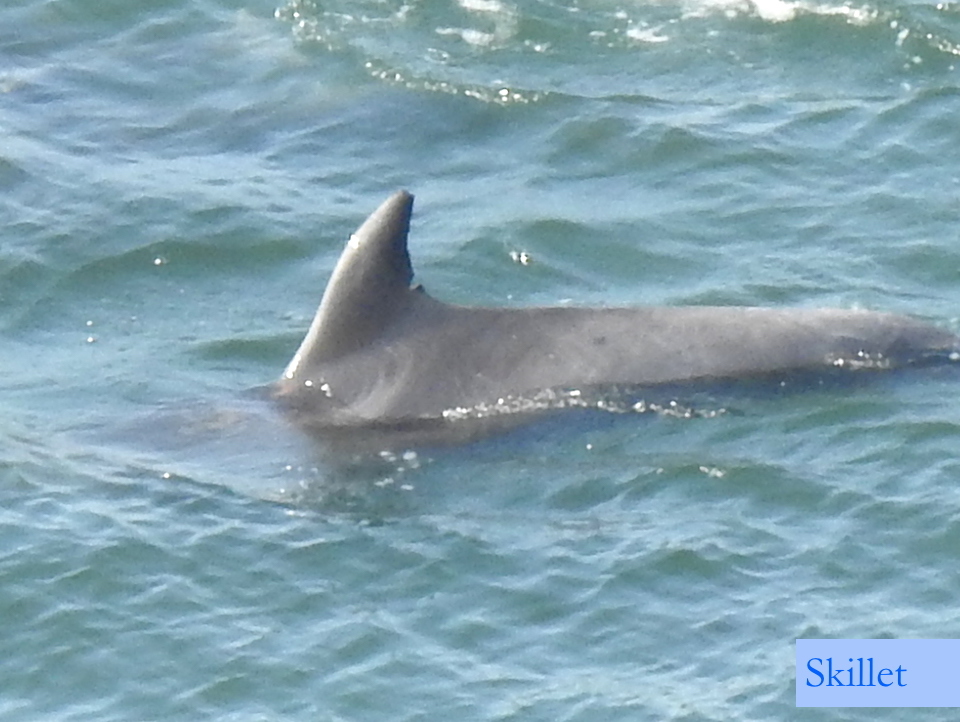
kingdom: Animalia
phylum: Chordata
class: Mammalia
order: Cetacea
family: Delphinidae
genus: Tursiops
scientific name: Tursiops truncatus
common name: Bottlenose dolphin
